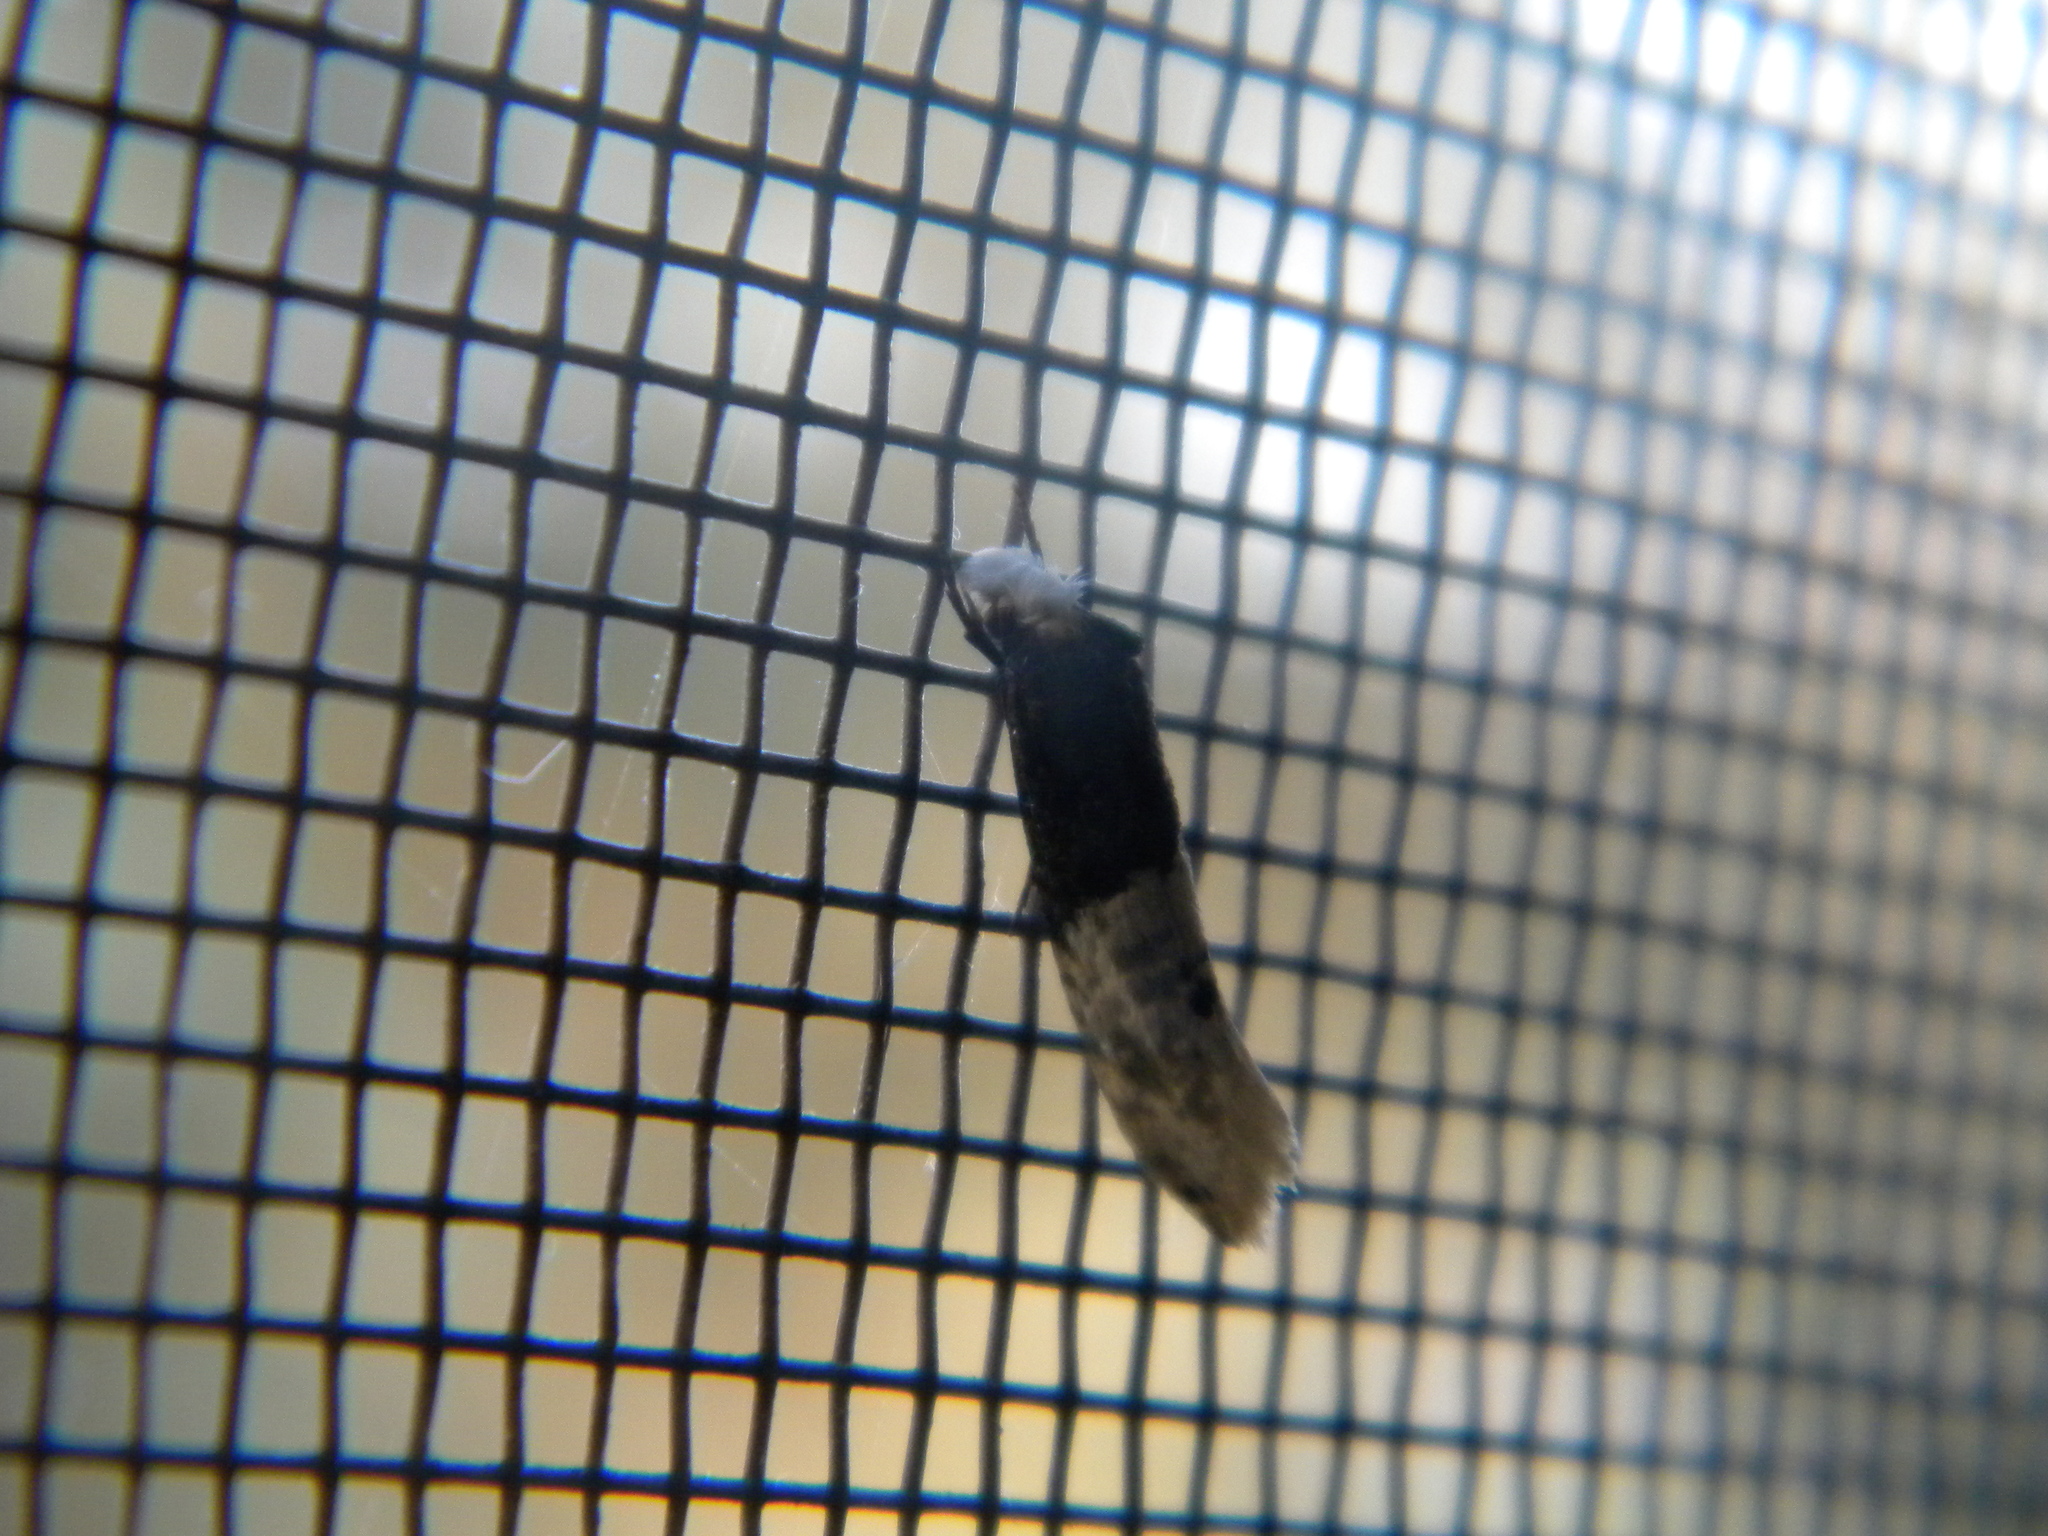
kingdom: Animalia
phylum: Arthropoda
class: Insecta
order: Lepidoptera
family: Tineidae
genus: Trichophaga
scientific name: Trichophaga tapetzella
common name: Tapestry moth
